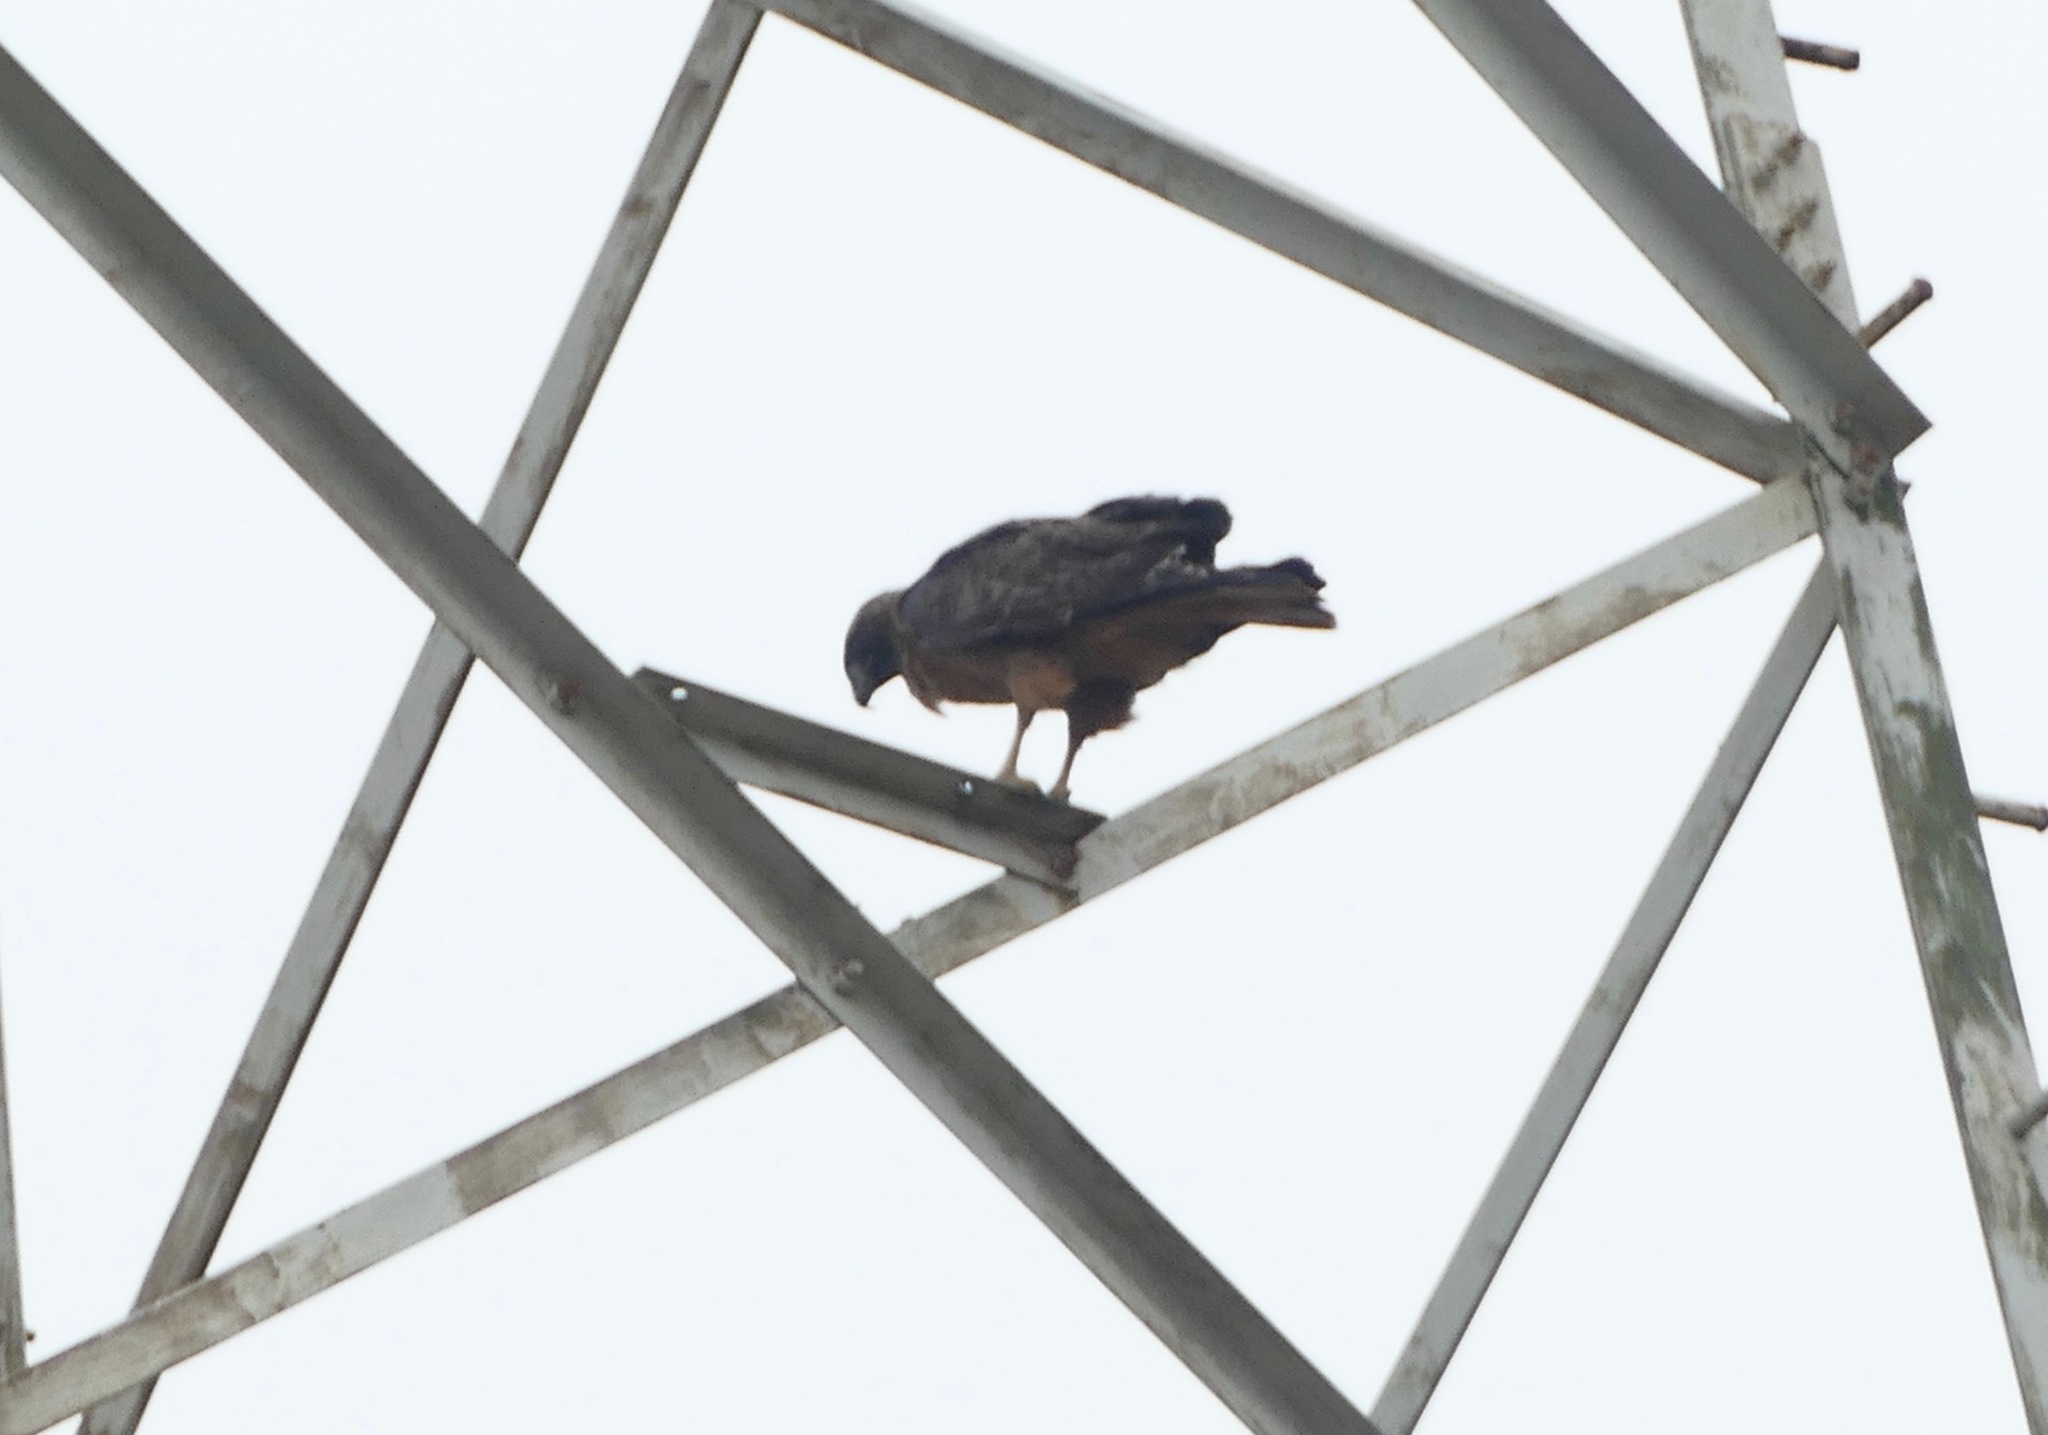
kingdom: Animalia
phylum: Chordata
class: Aves
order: Accipitriformes
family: Accipitridae
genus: Buteo
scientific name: Buteo jamaicensis
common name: Red-tailed hawk
